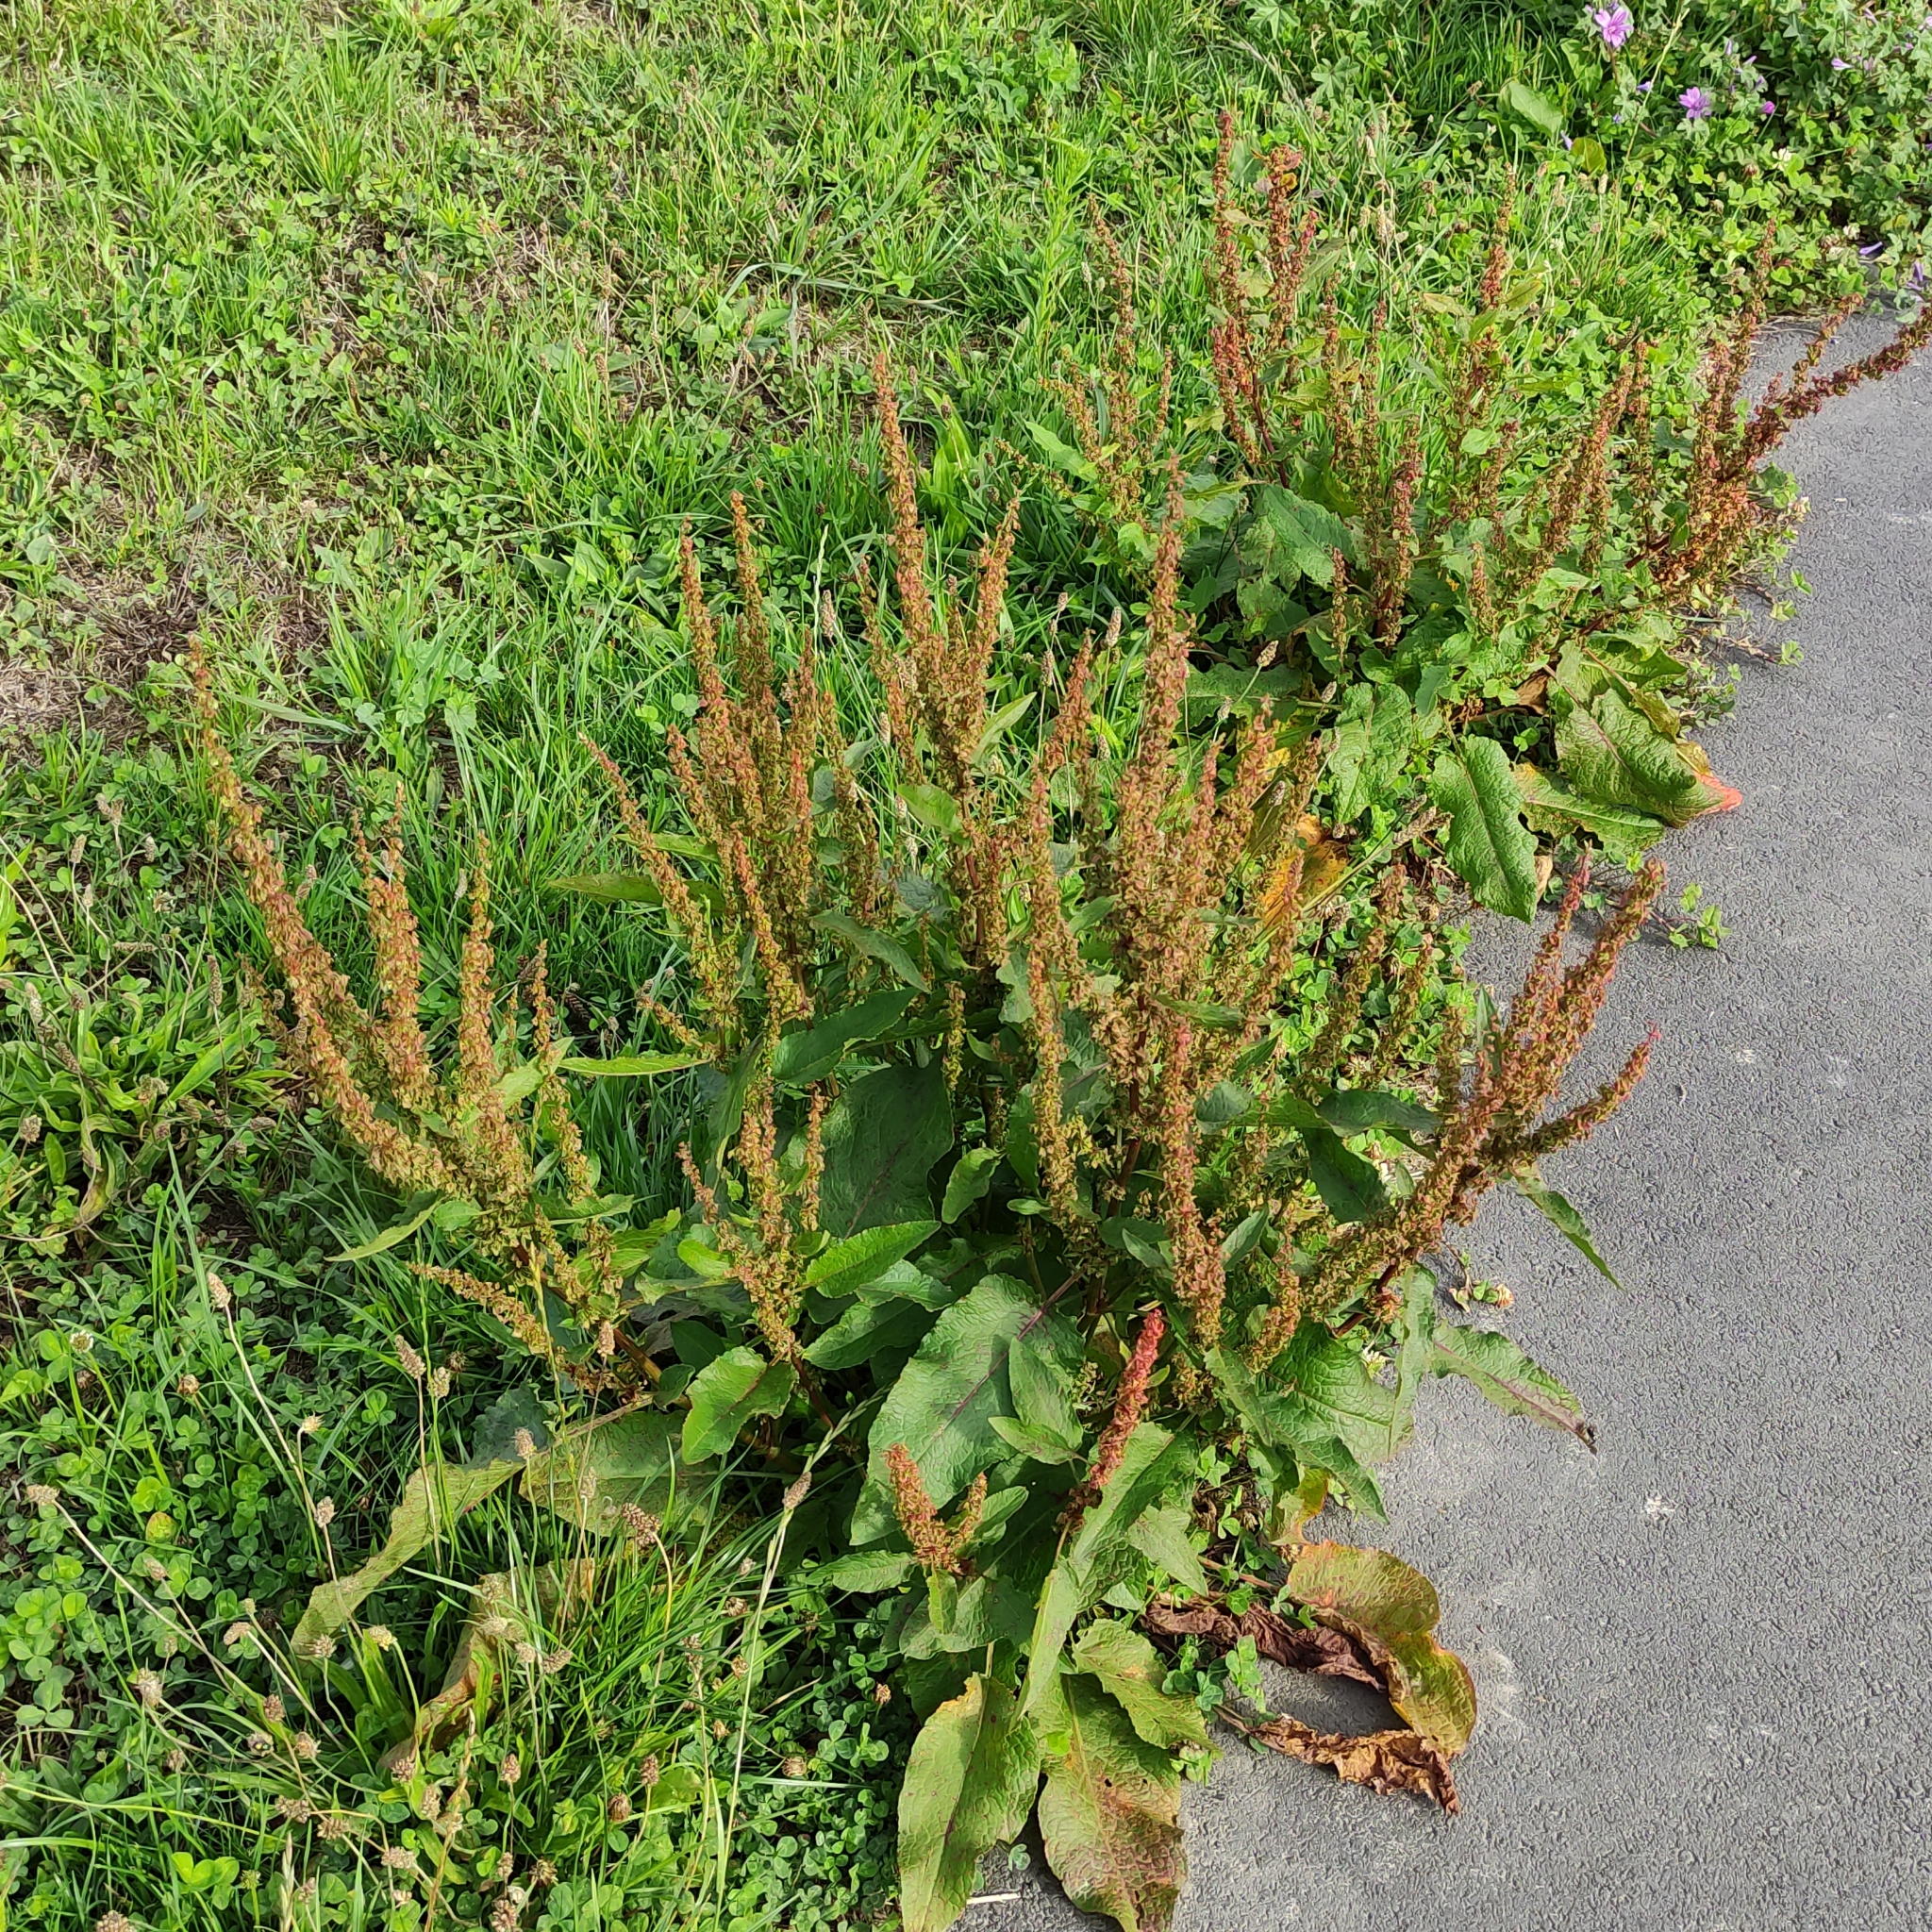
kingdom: Plantae
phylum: Tracheophyta
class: Magnoliopsida
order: Caryophyllales
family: Polygonaceae
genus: Rumex
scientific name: Rumex obtusifolius
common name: Bitter dock
